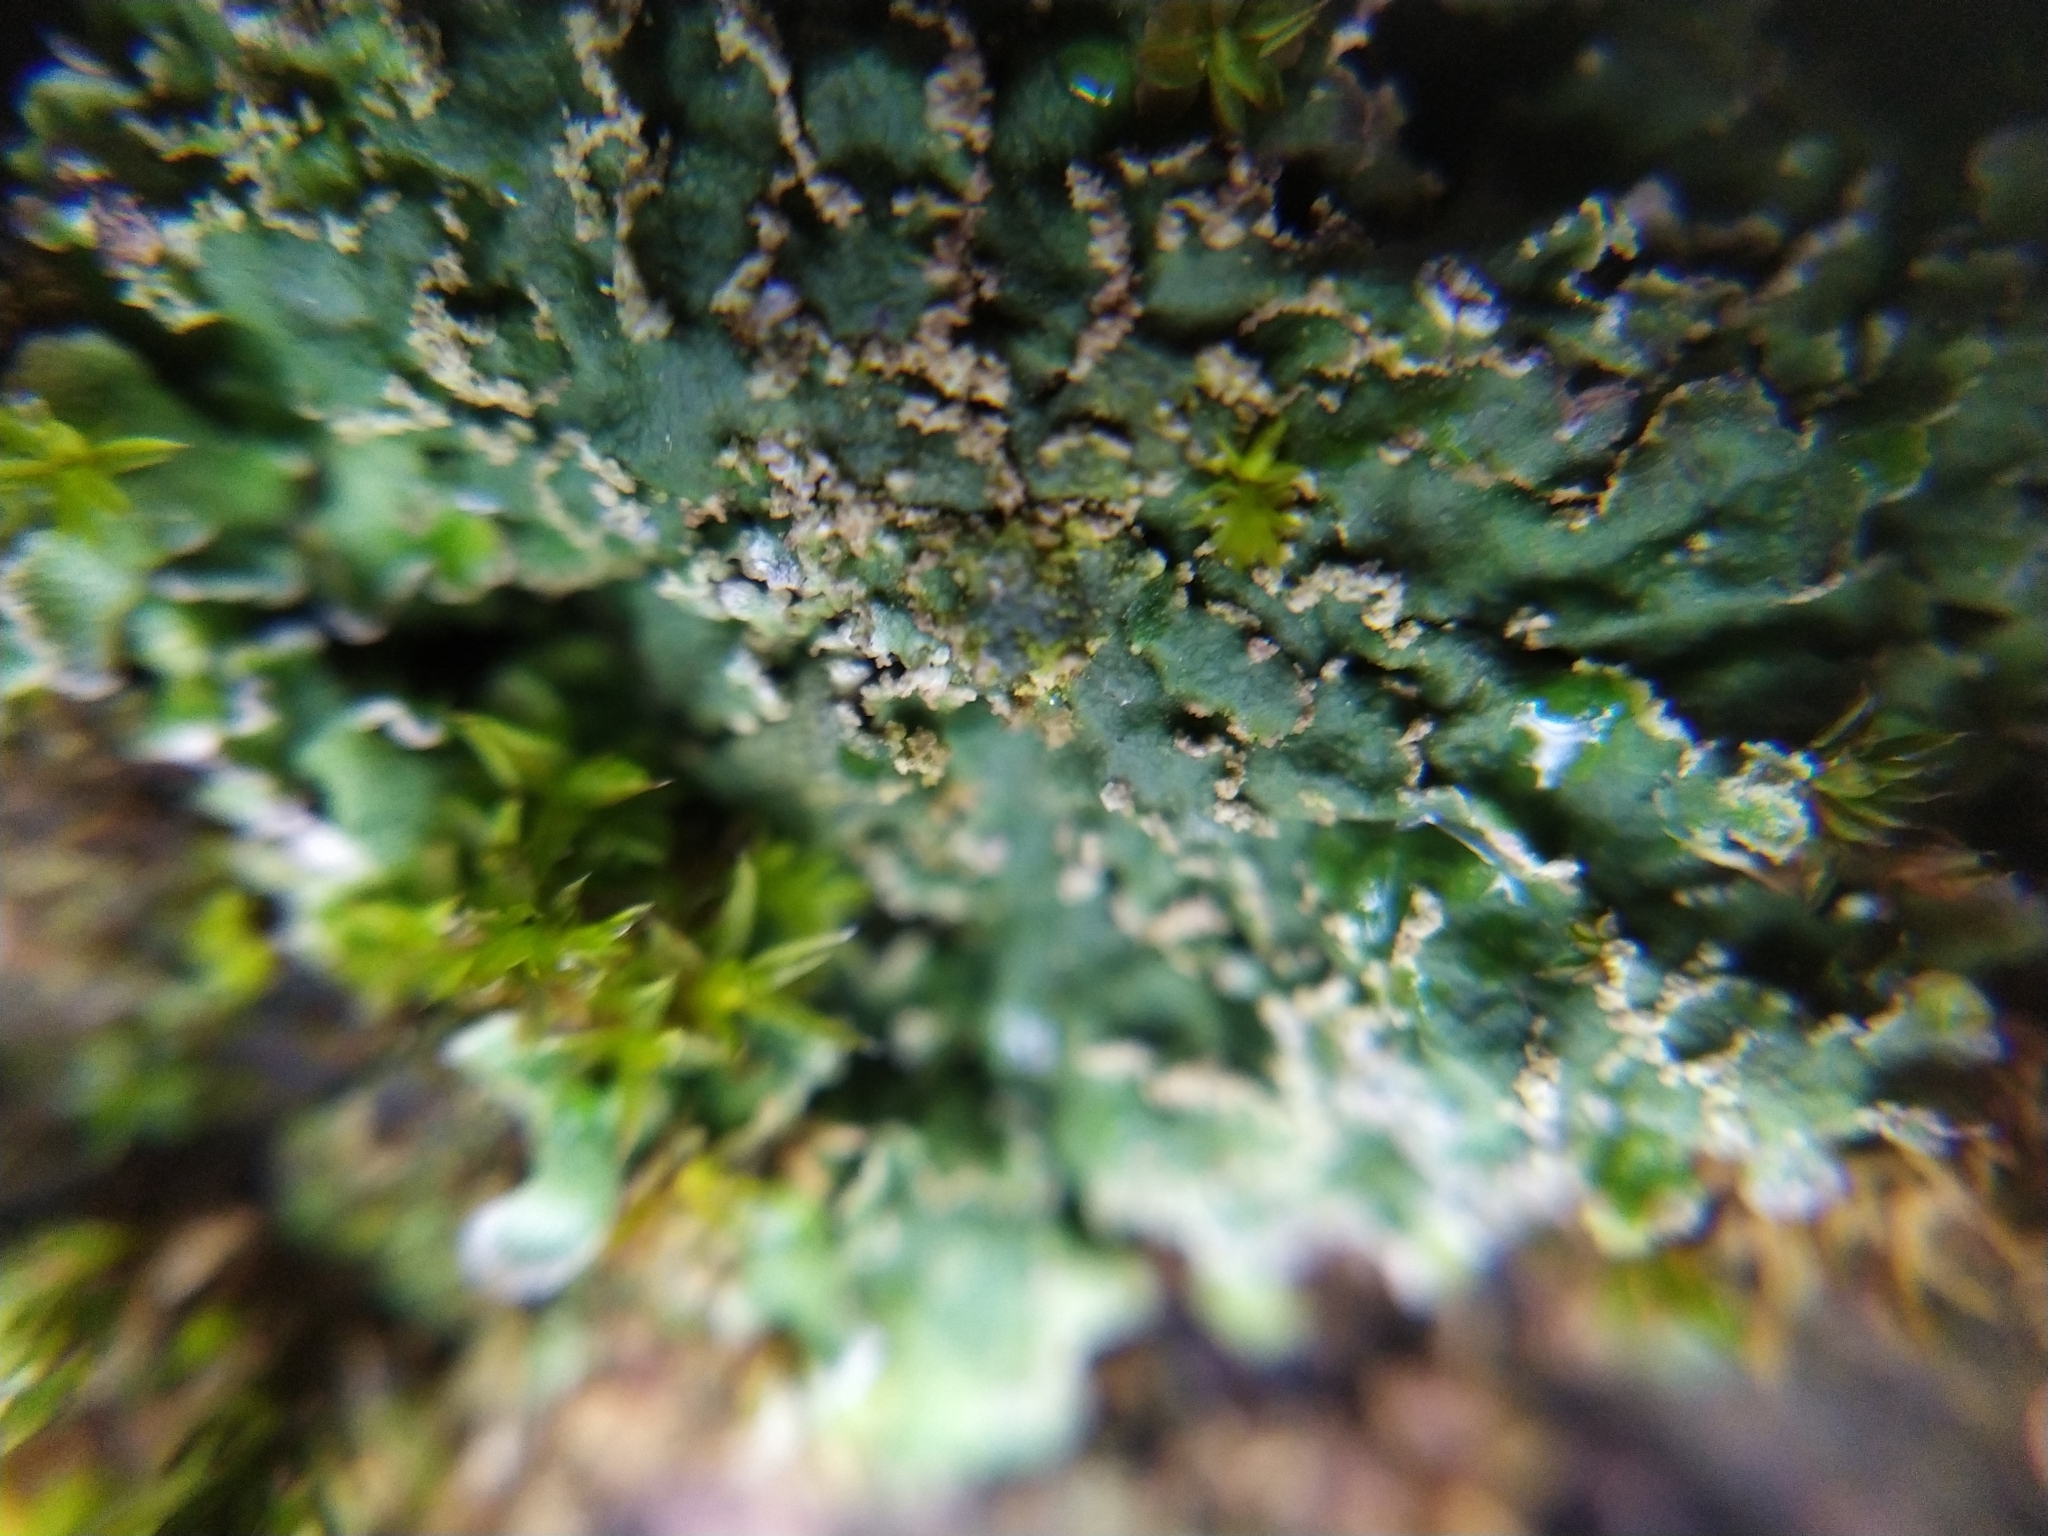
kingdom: Fungi
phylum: Ascomycota
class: Lecanoromycetes
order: Caliciales
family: Physciaceae
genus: Physconia
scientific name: Physconia enteroxantha
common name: Yellow-edged frost lichen
